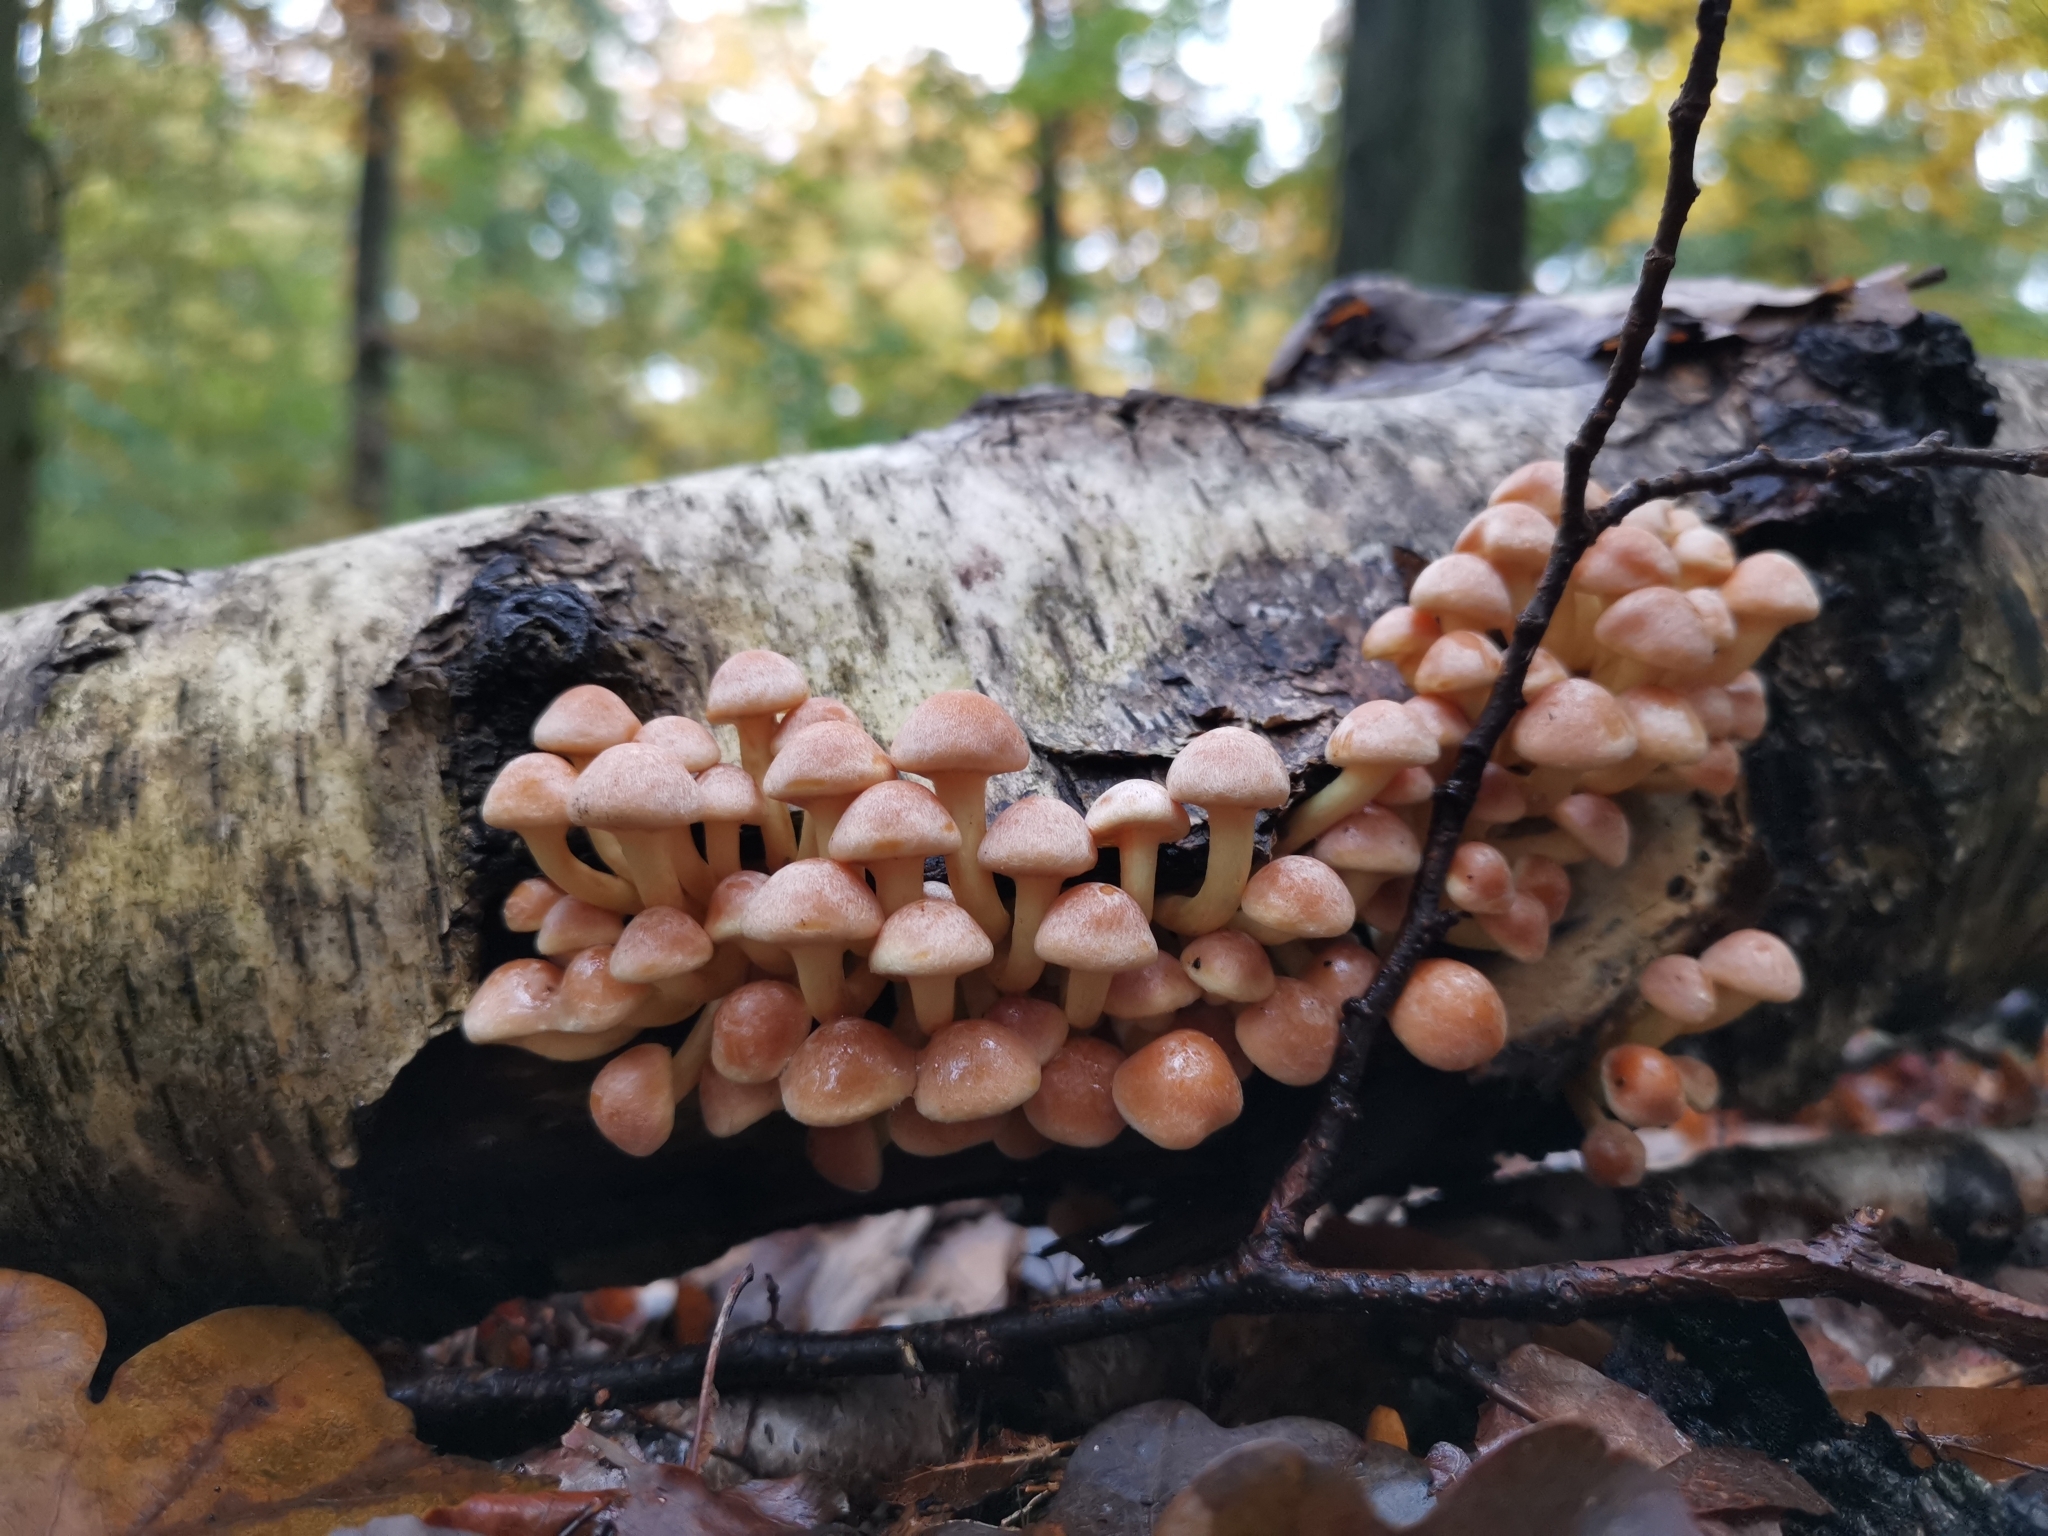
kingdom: Fungi
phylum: Basidiomycota
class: Agaricomycetes
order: Agaricales
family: Strophariaceae
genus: Hypholoma
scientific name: Hypholoma fasciculare
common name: Sulphur tuft
